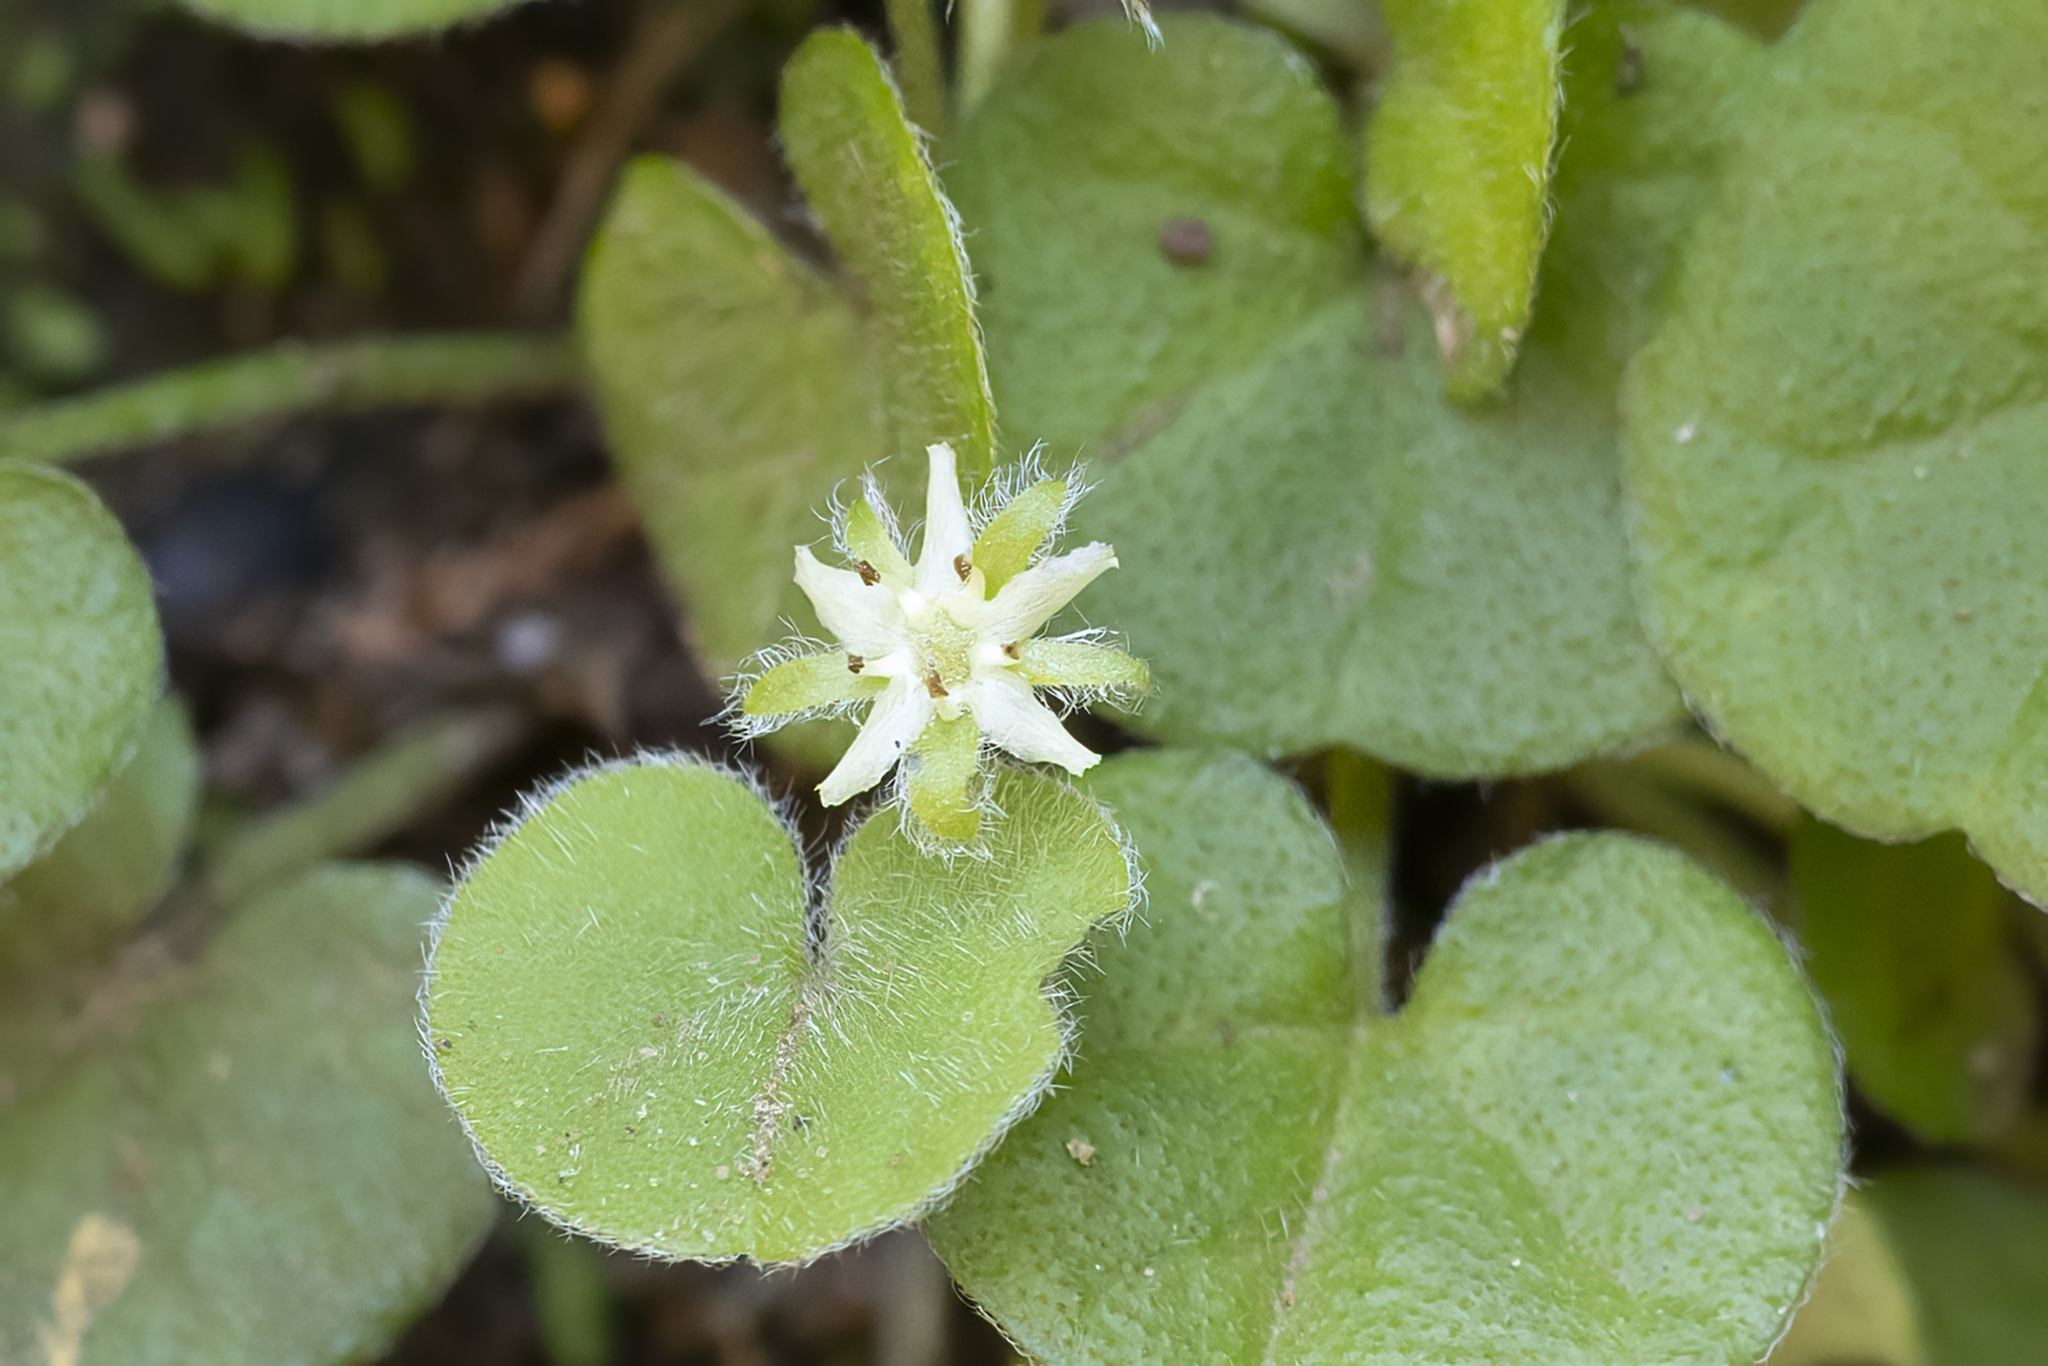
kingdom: Plantae
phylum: Tracheophyta
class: Magnoliopsida
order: Solanales
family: Convolvulaceae
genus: Dichondra
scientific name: Dichondra repens
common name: Kidneyweed
